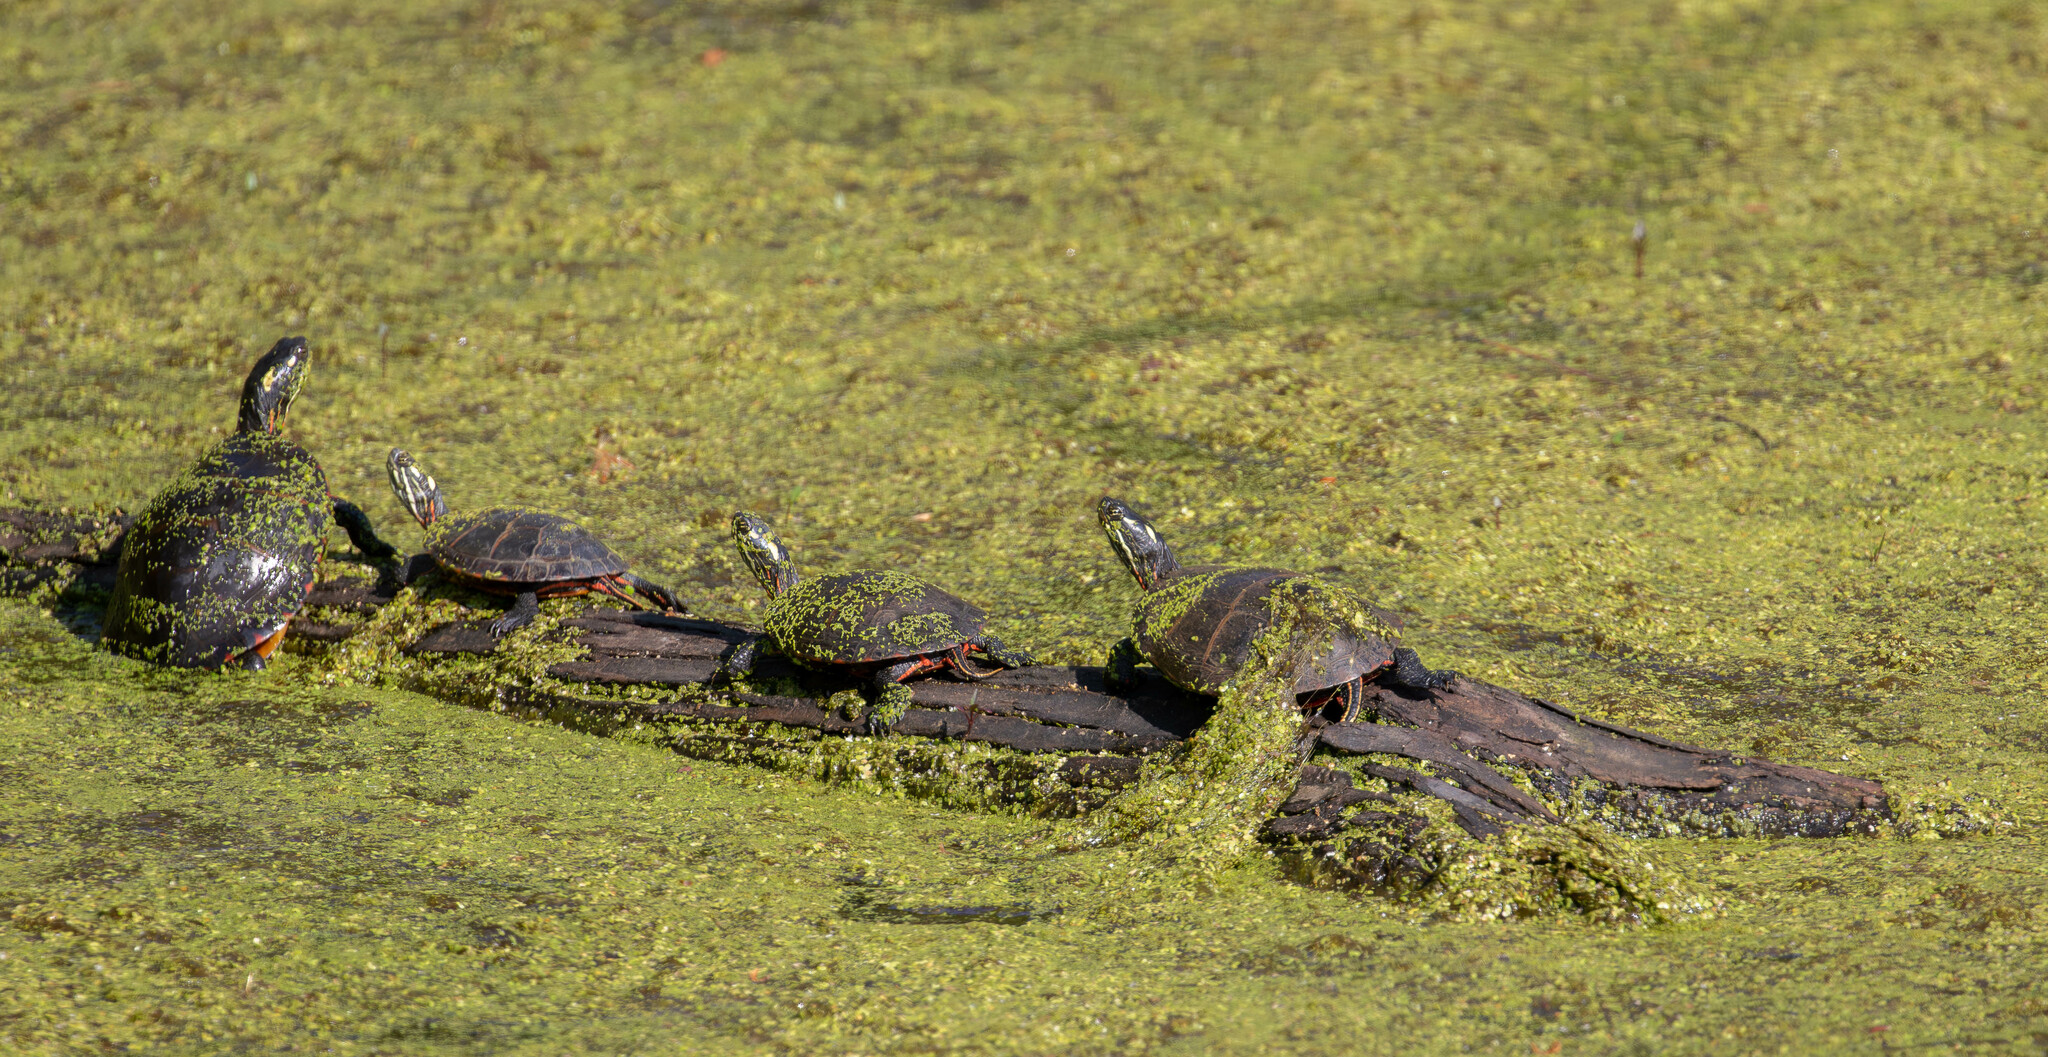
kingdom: Animalia
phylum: Chordata
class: Testudines
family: Emydidae
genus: Chrysemys
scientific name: Chrysemys picta
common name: Painted turtle
